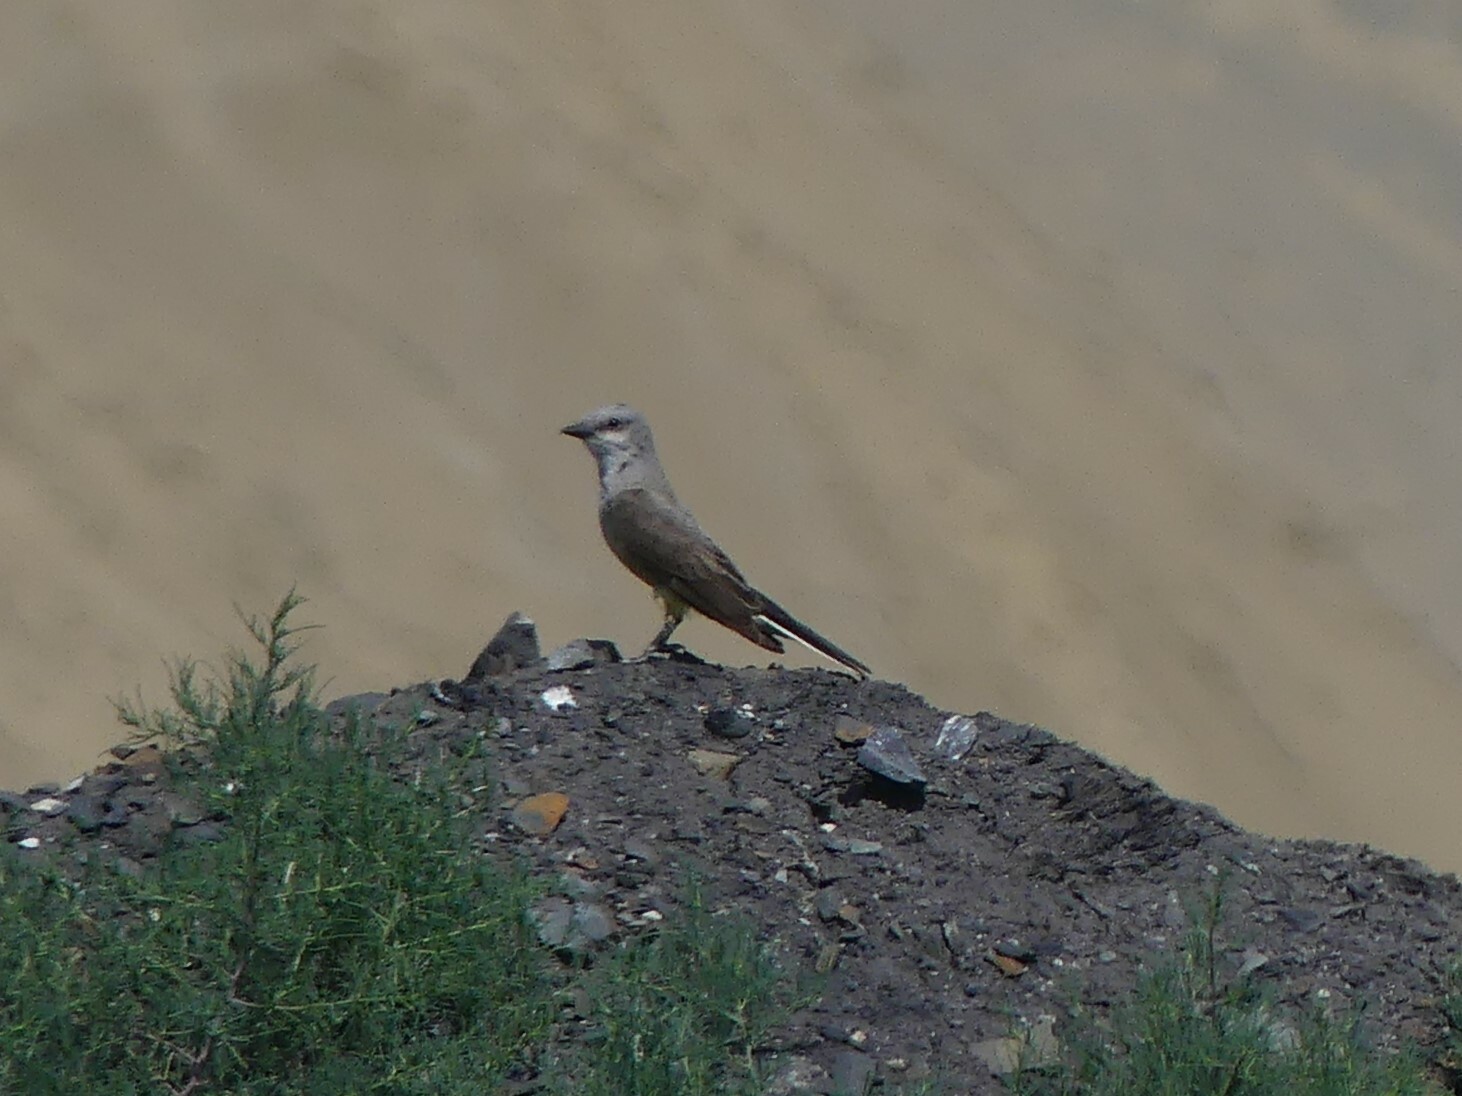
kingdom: Animalia
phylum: Chordata
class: Aves
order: Passeriformes
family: Tyrannidae
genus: Tyrannus
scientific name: Tyrannus verticalis
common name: Western kingbird
